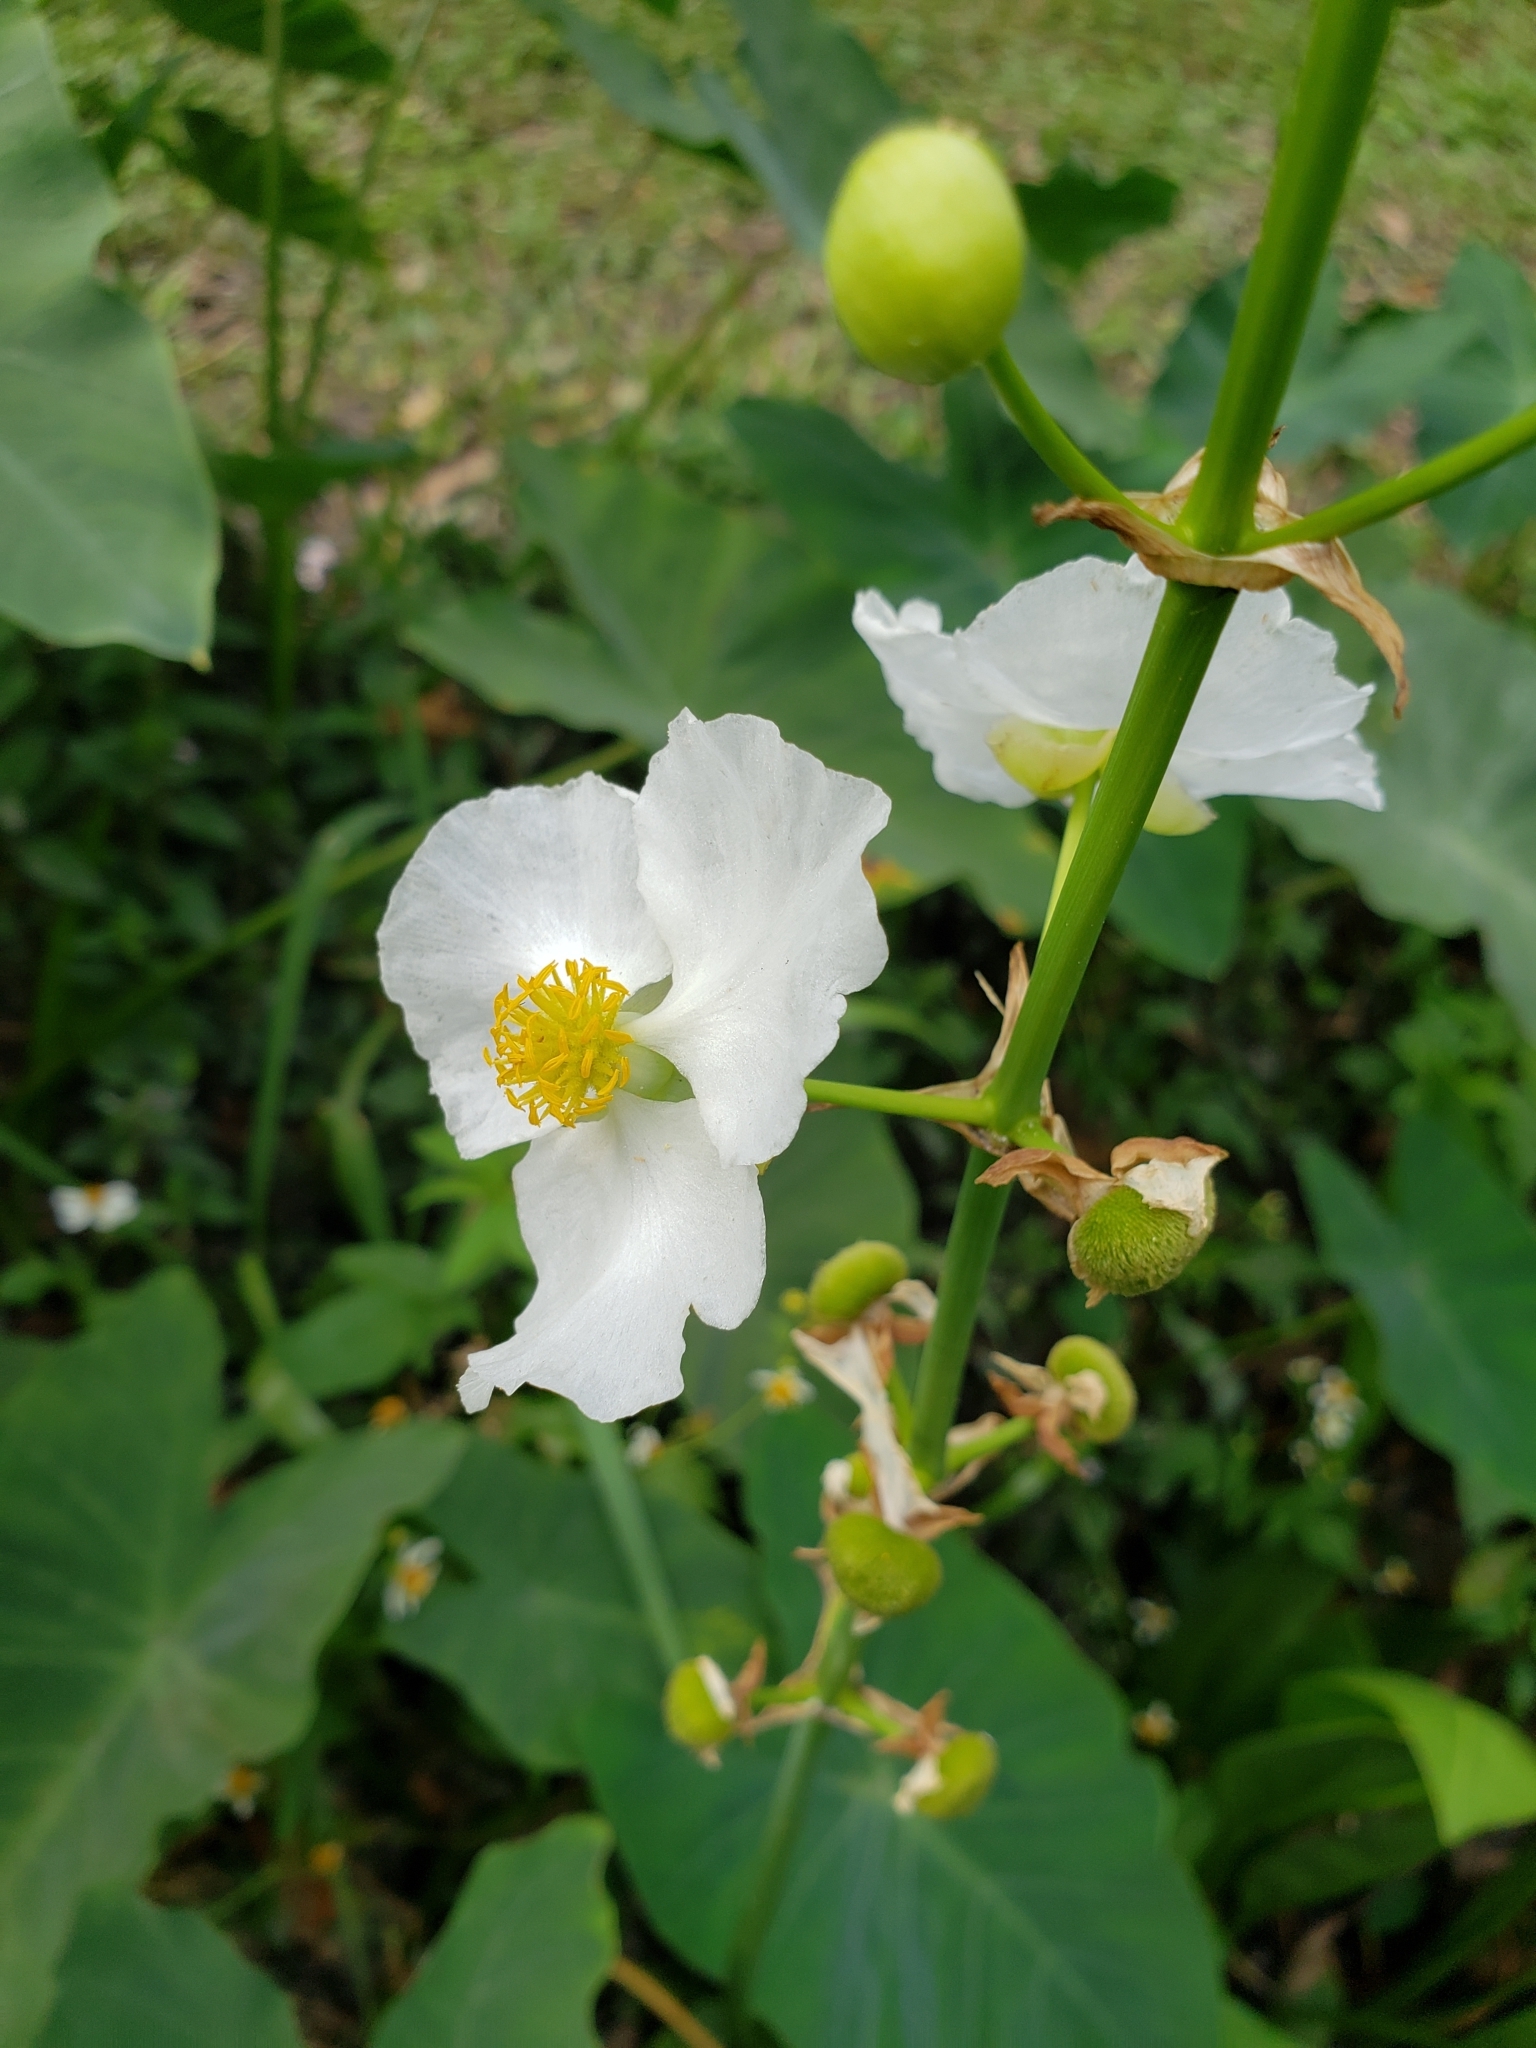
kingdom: Plantae
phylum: Tracheophyta
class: Liliopsida
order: Alismatales
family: Alismataceae
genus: Sagittaria
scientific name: Sagittaria lancifolia
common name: Lance-leaf arrowhead
